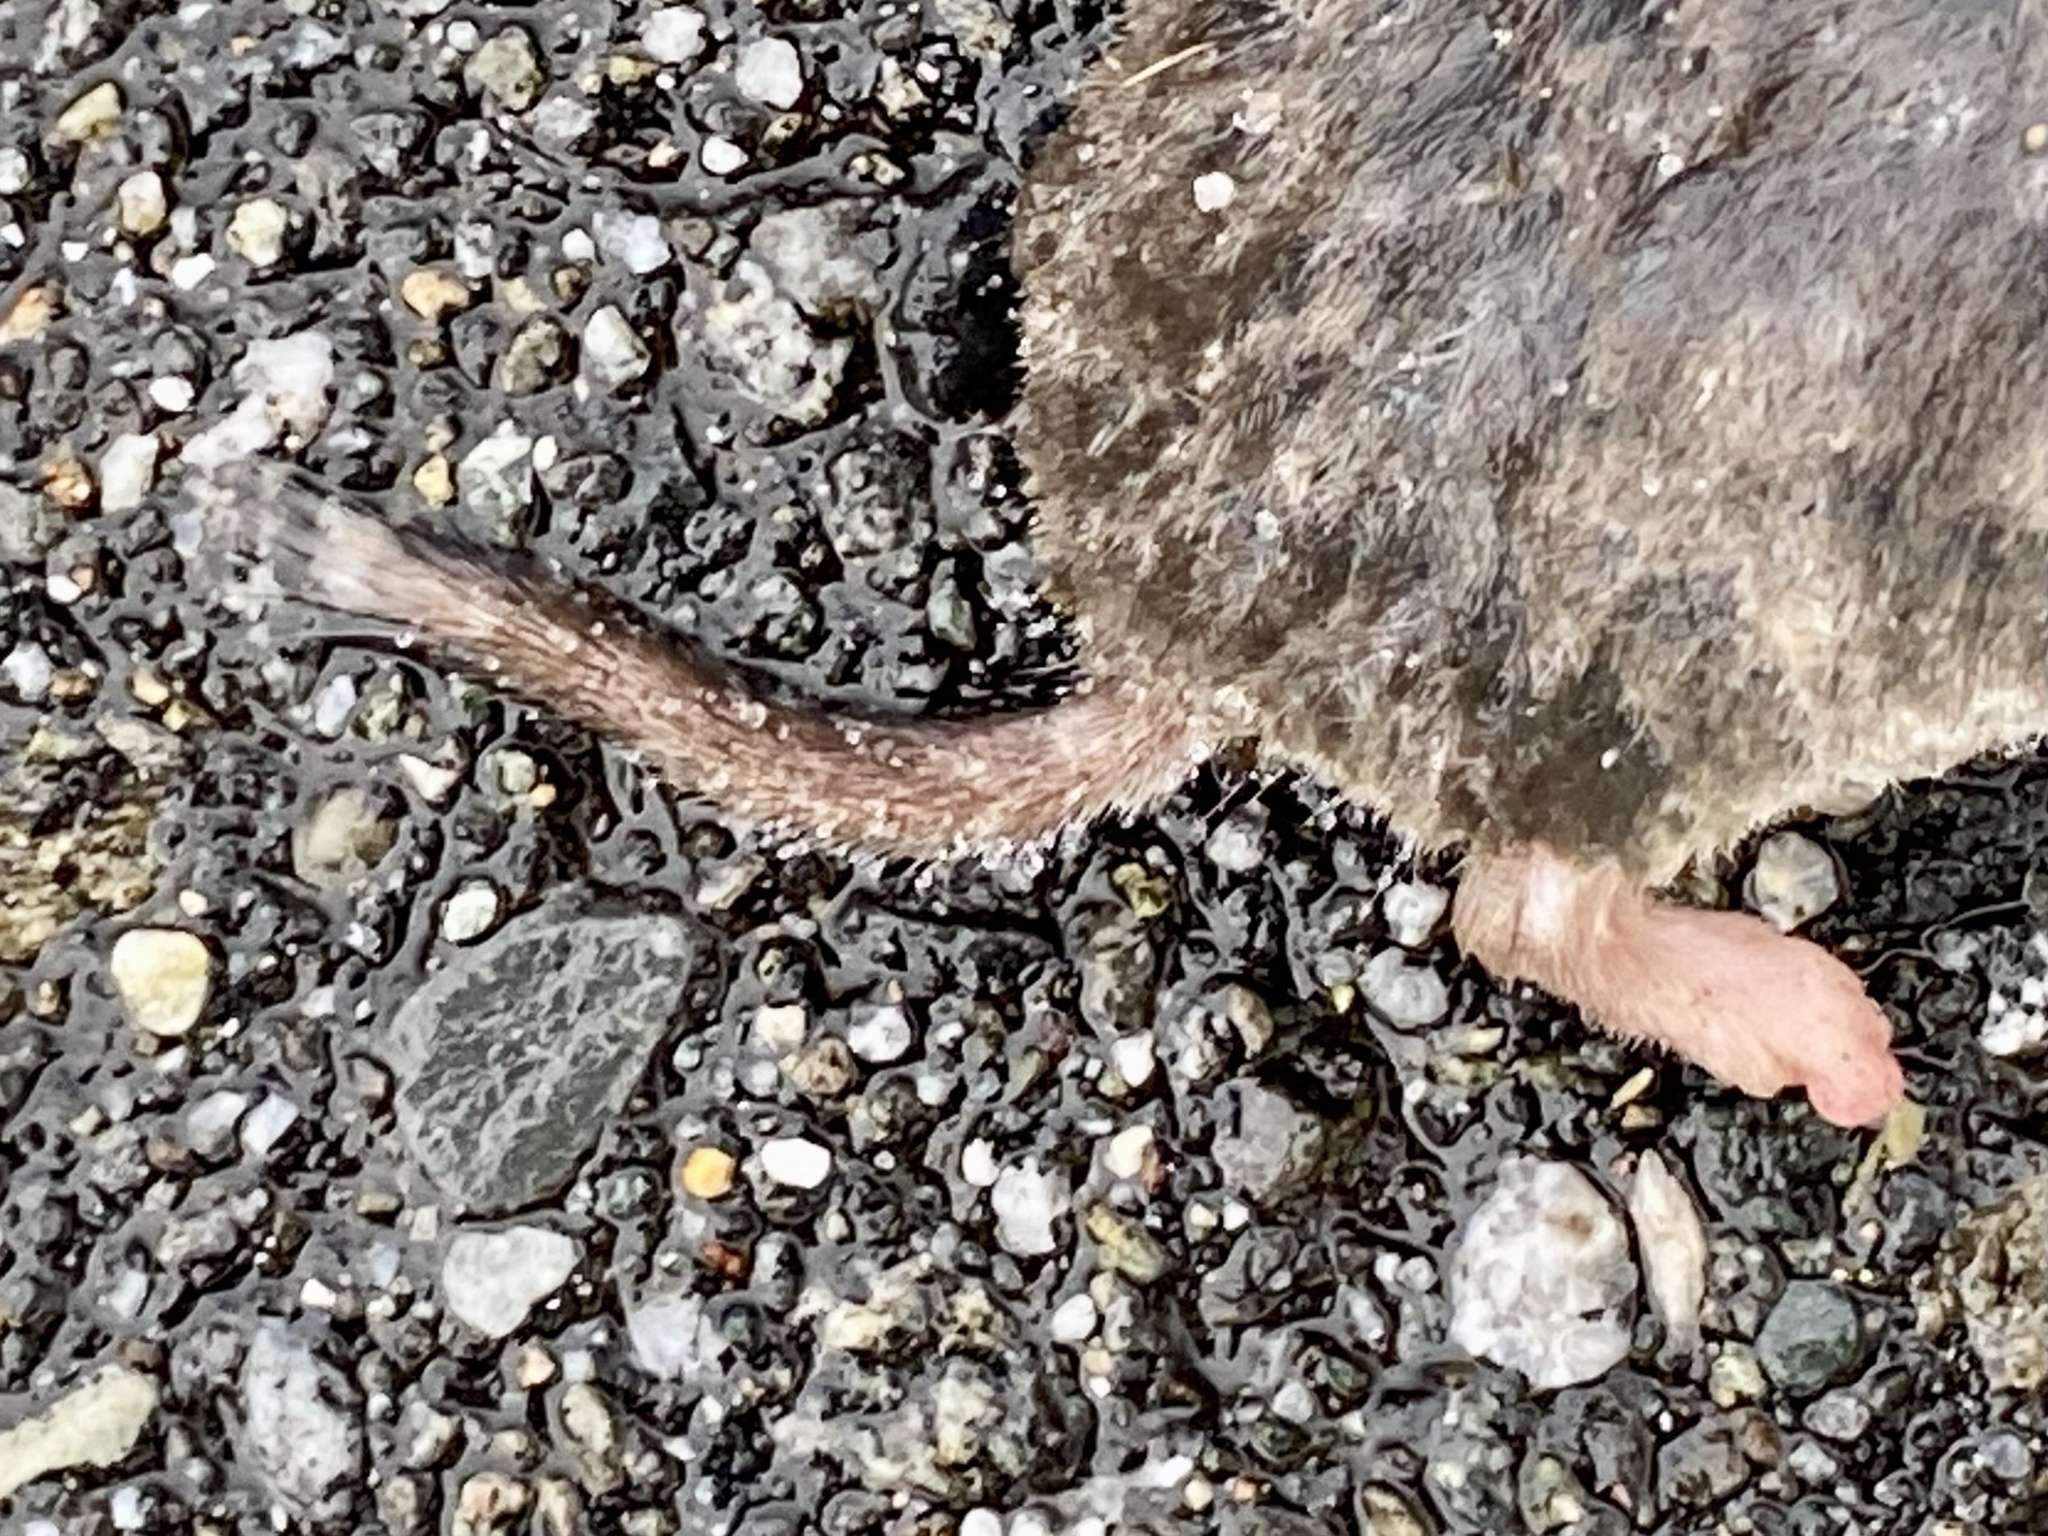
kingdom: Animalia
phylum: Chordata
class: Mammalia
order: Soricomorpha
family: Soricidae
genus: Blarina
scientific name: Blarina brevicauda
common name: Northern short-tailed shrew
